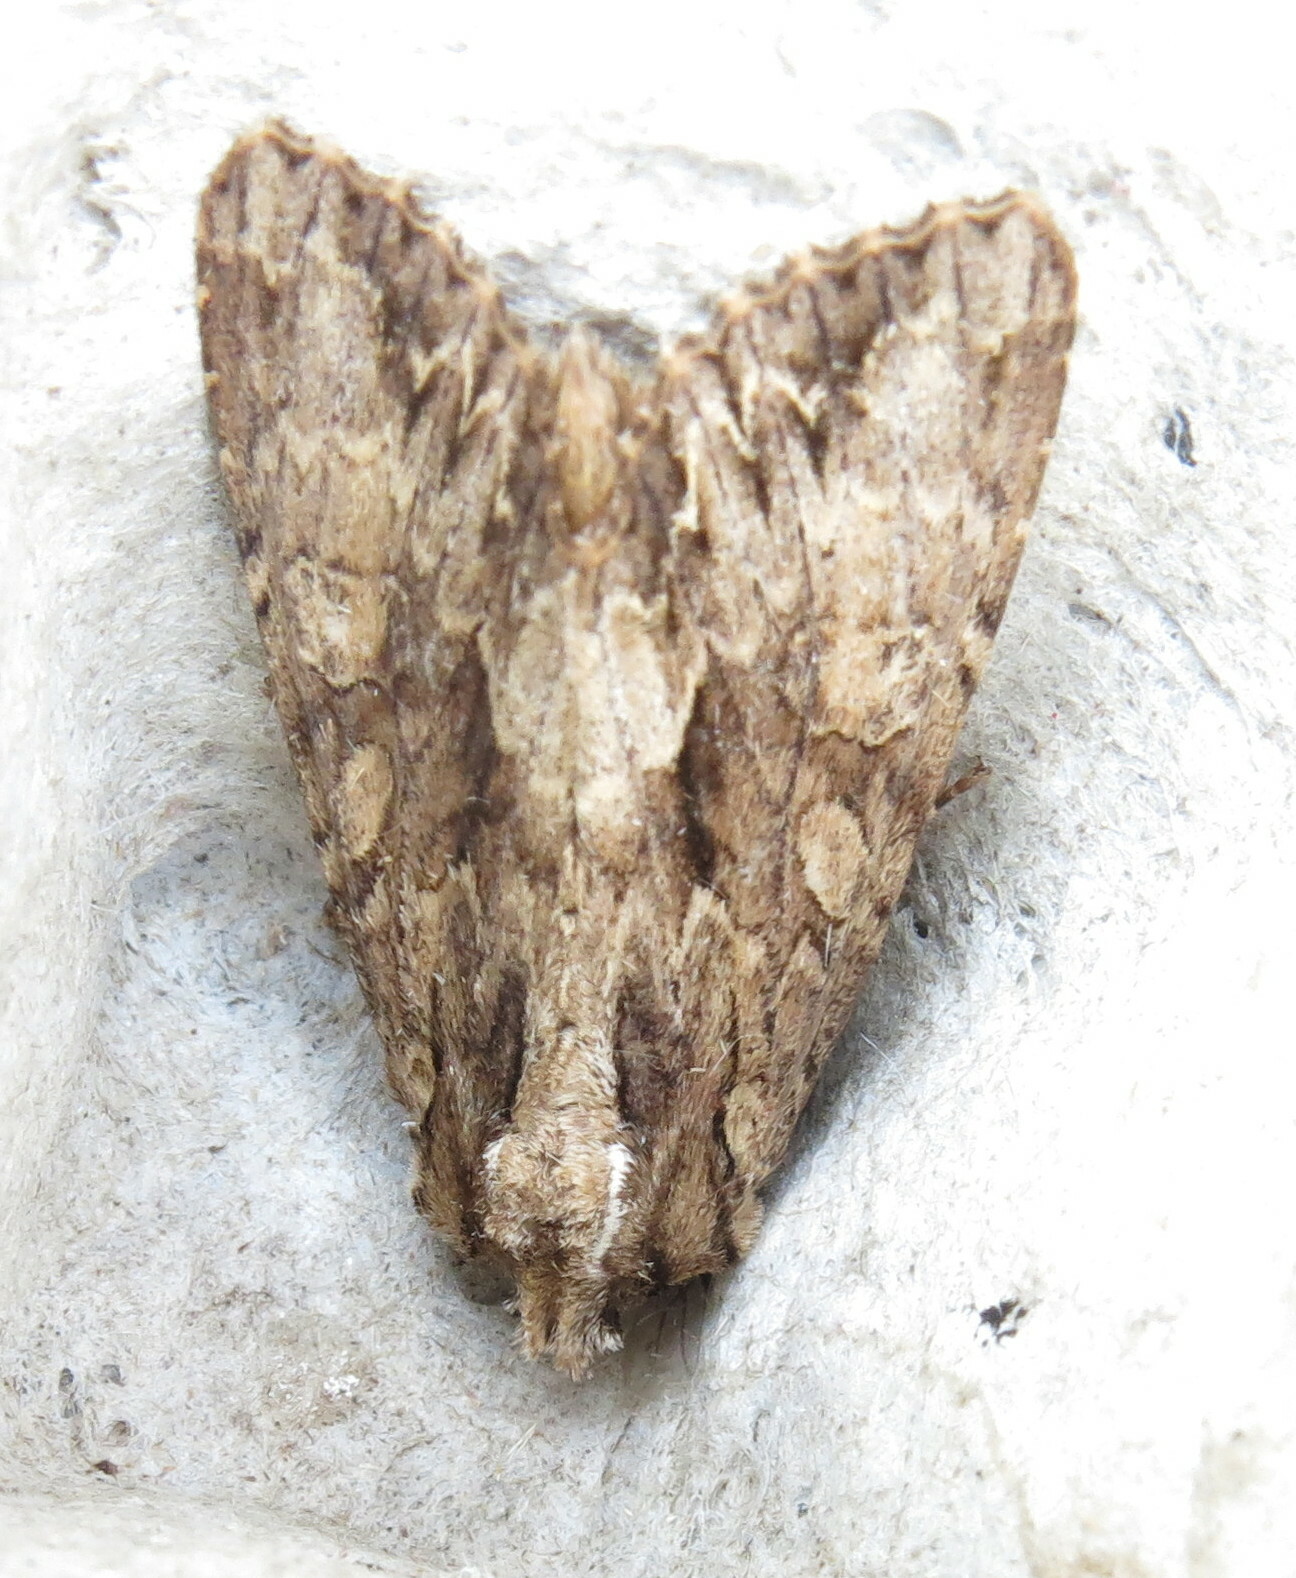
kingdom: Animalia
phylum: Arthropoda
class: Insecta
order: Lepidoptera
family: Noctuidae
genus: Apamea
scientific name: Apamea monoglypha
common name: Dark arches
